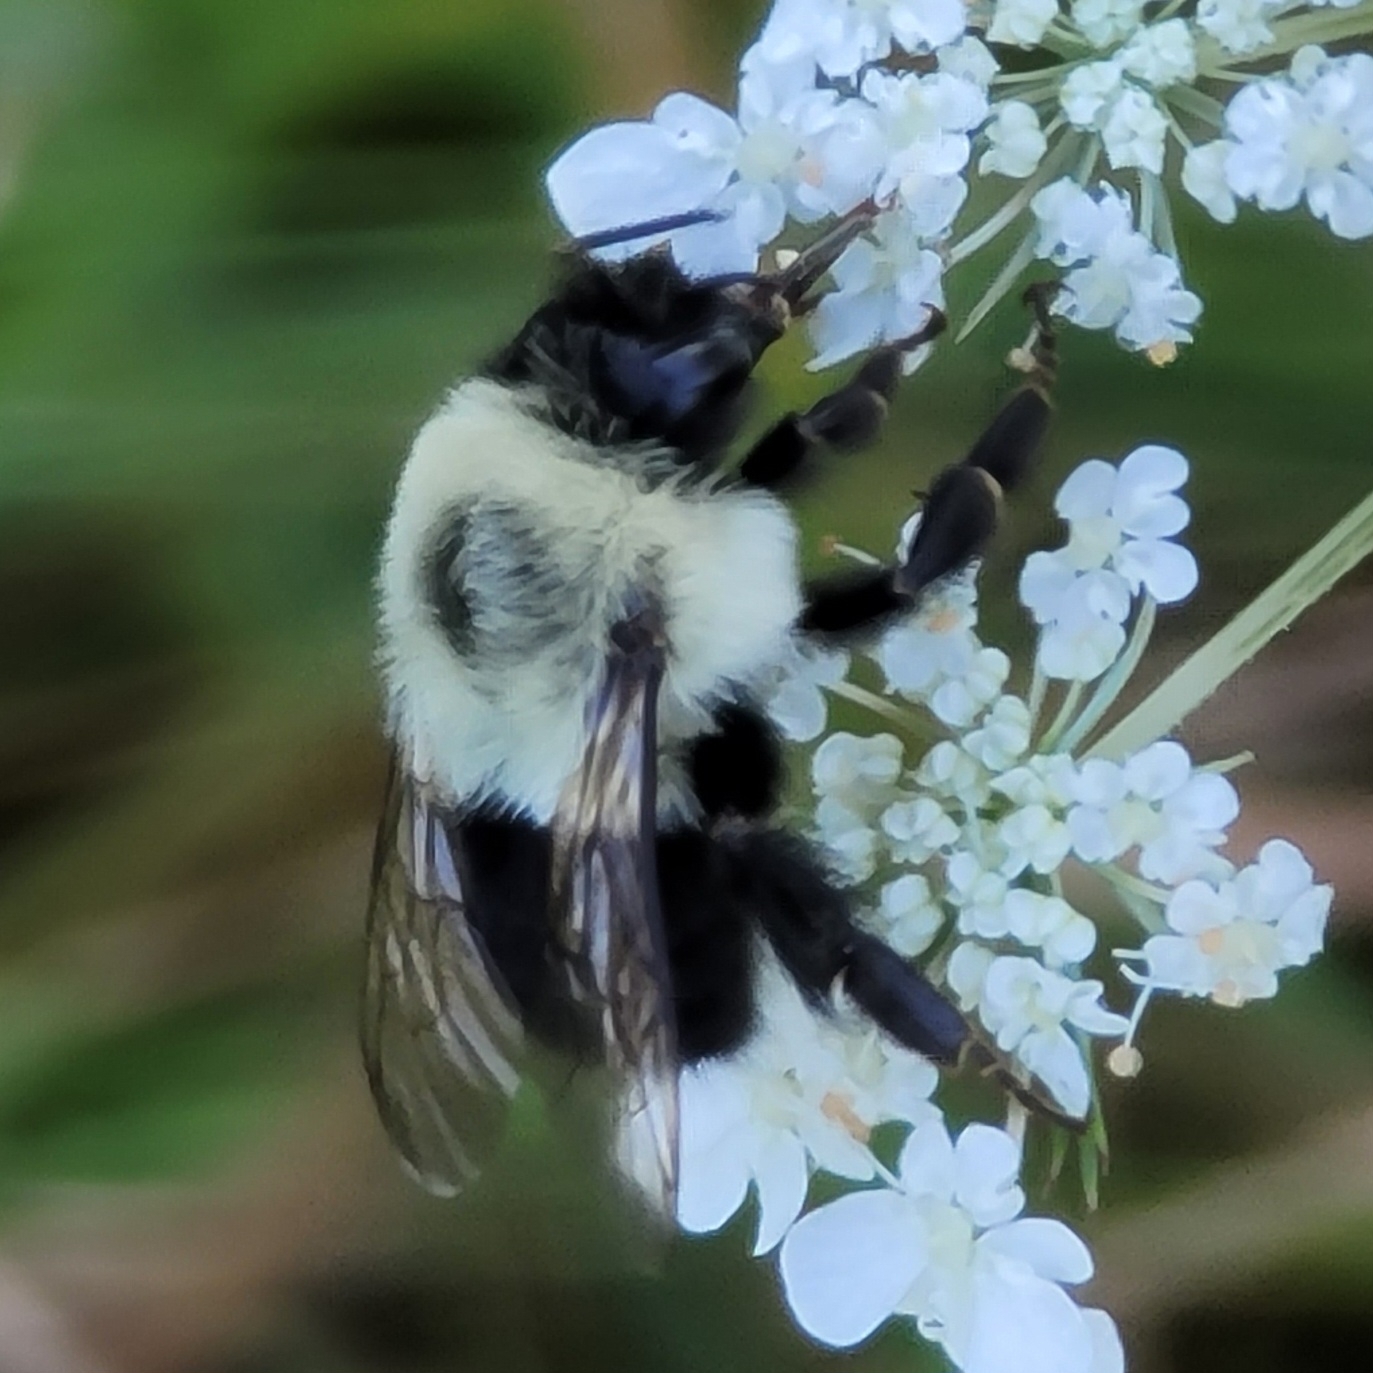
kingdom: Animalia
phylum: Arthropoda
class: Insecta
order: Hymenoptera
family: Apidae
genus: Bombus
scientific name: Bombus impatiens
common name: Common eastern bumble bee
